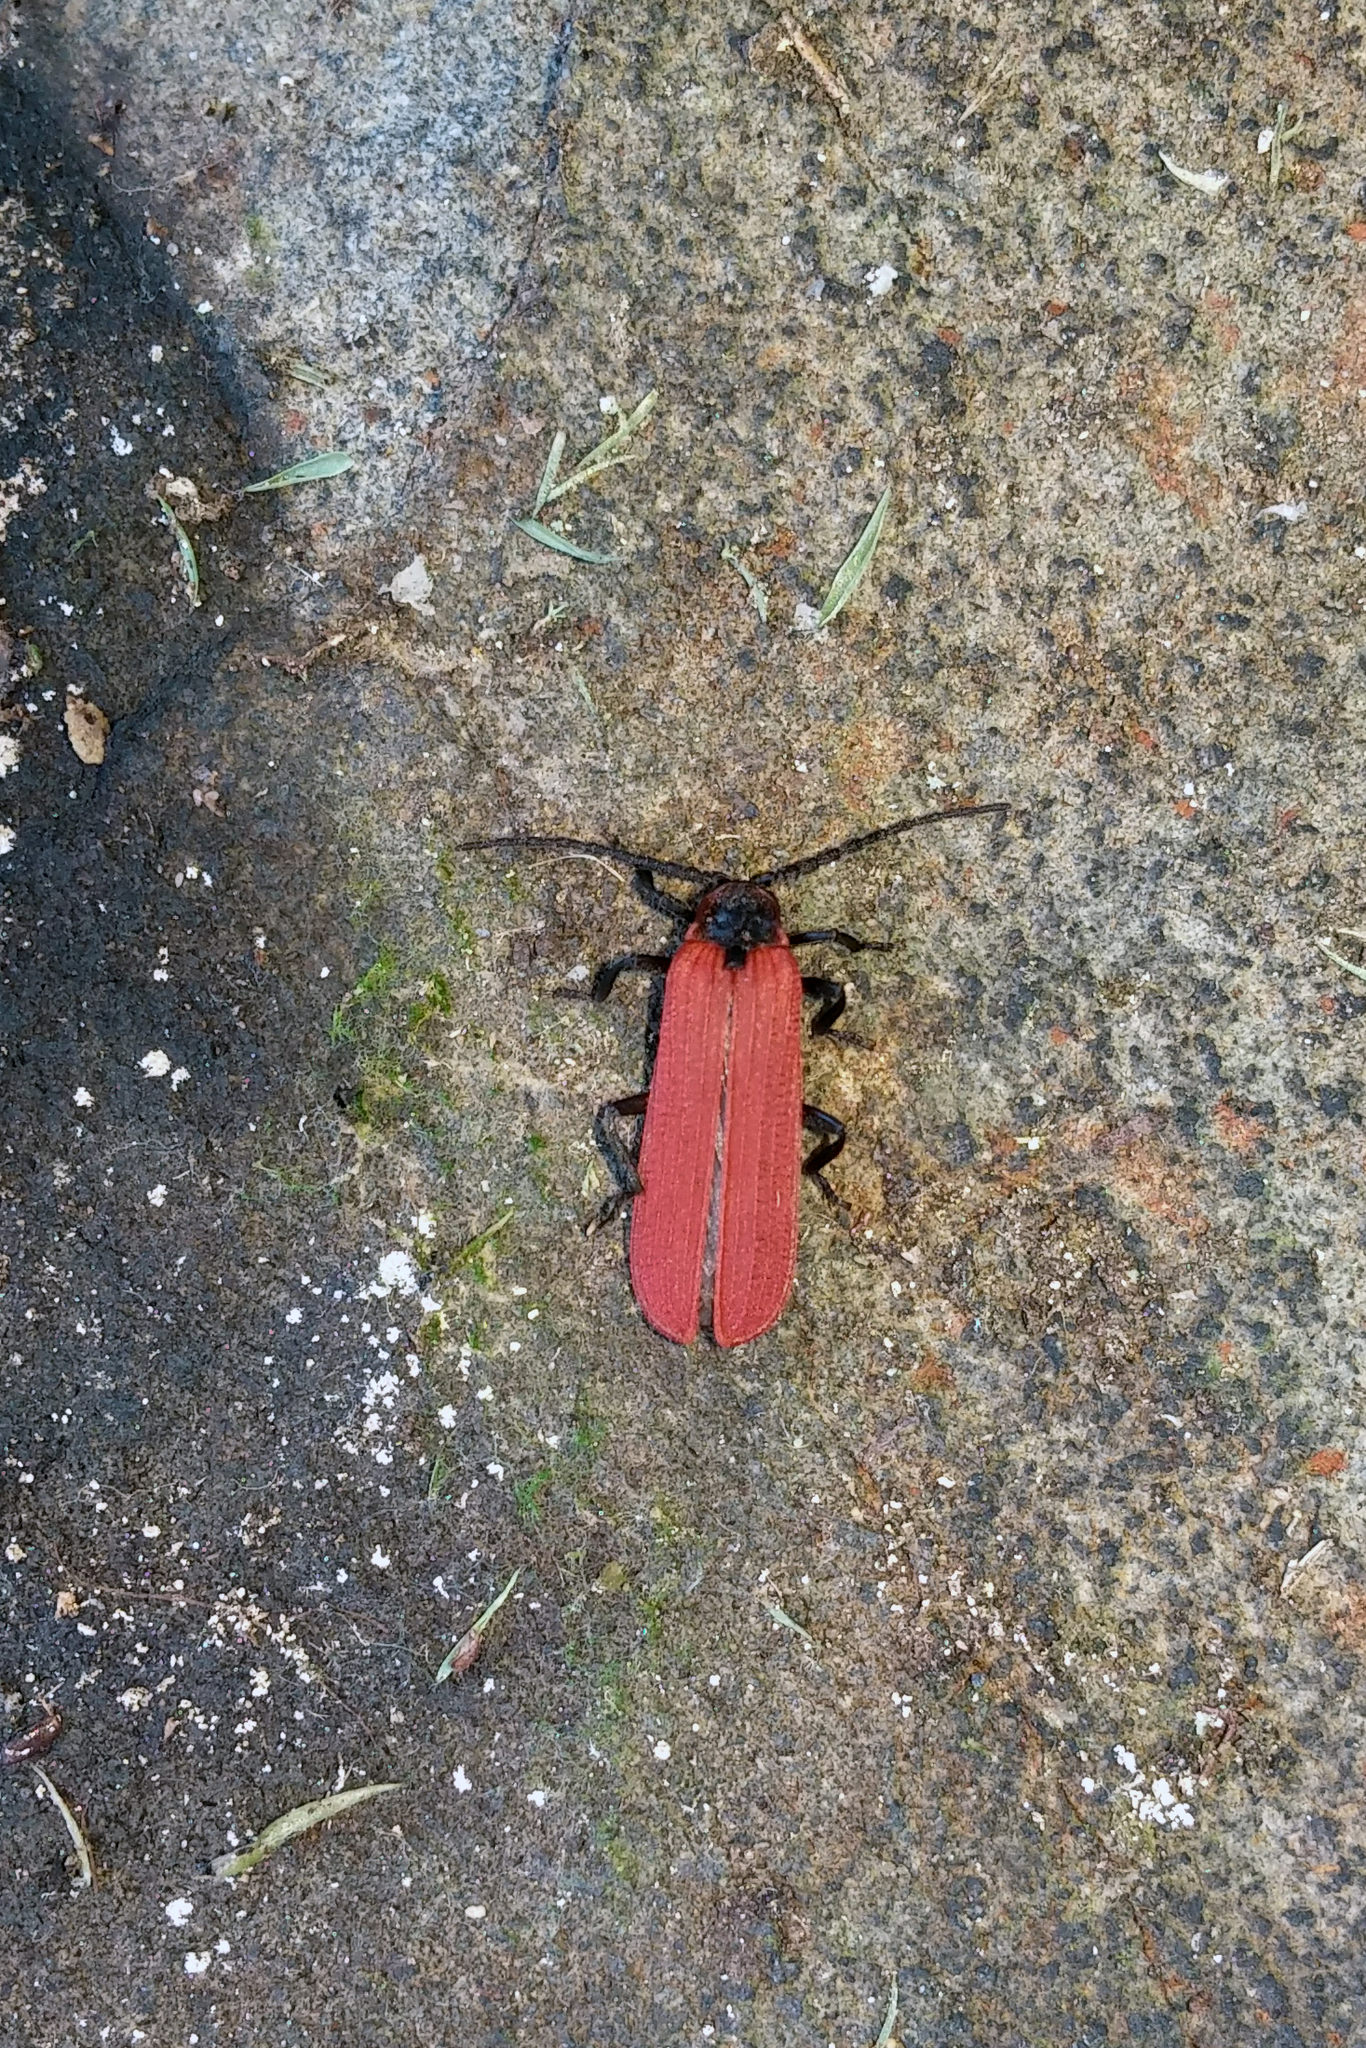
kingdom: Animalia
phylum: Arthropoda
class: Insecta
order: Coleoptera
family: Lycidae
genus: Dictyoptera
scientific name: Dictyoptera aurora
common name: Golden net-winged beetle
